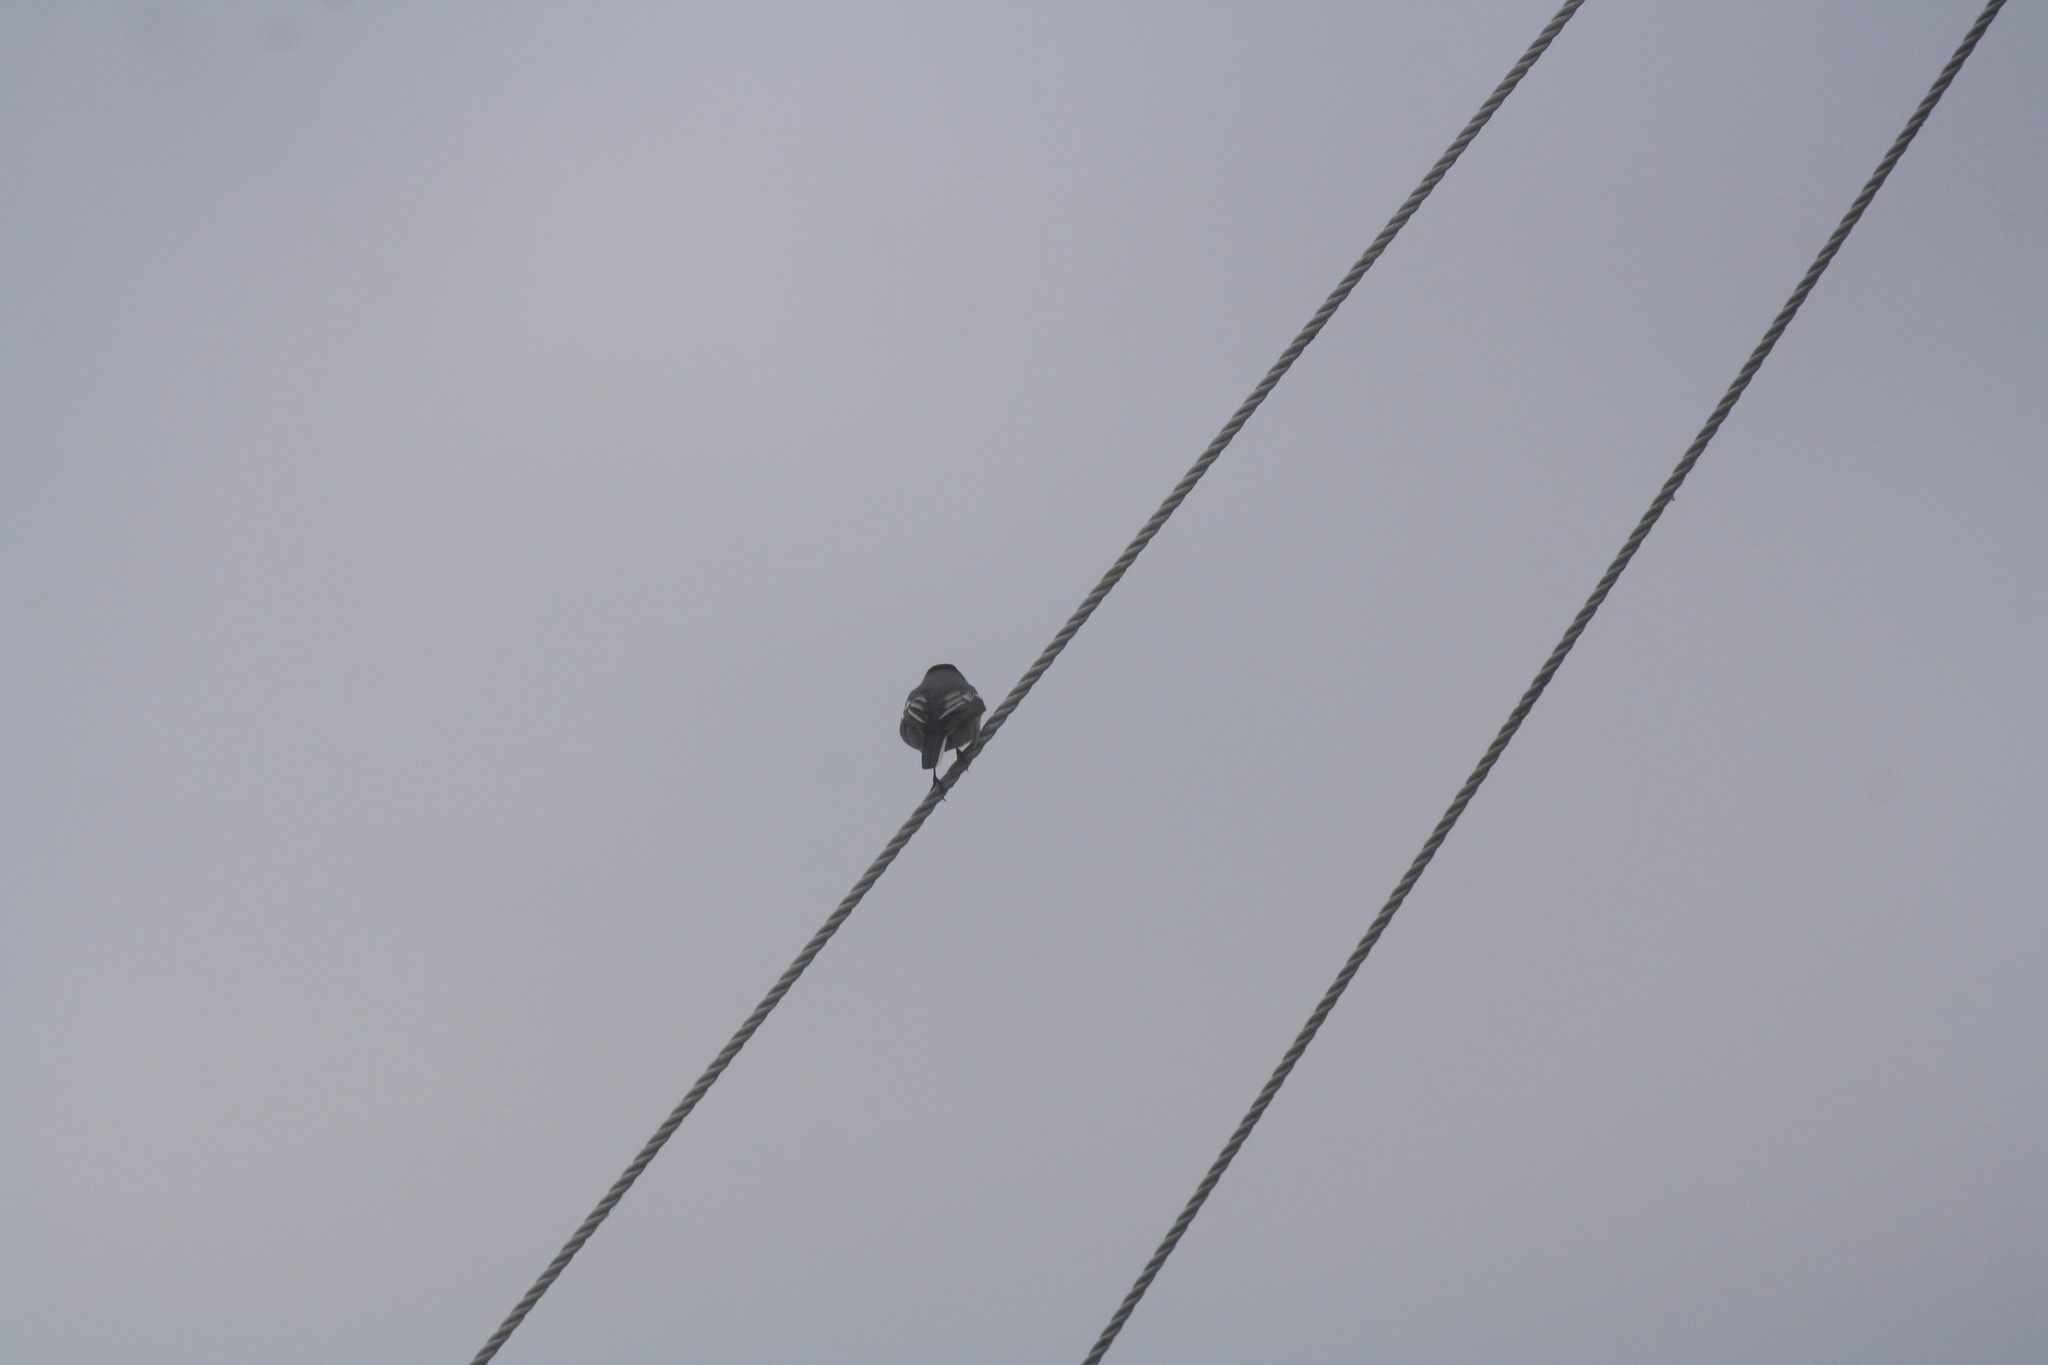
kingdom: Animalia
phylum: Chordata
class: Aves
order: Passeriformes
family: Motacillidae
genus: Motacilla
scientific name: Motacilla alba
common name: White wagtail
